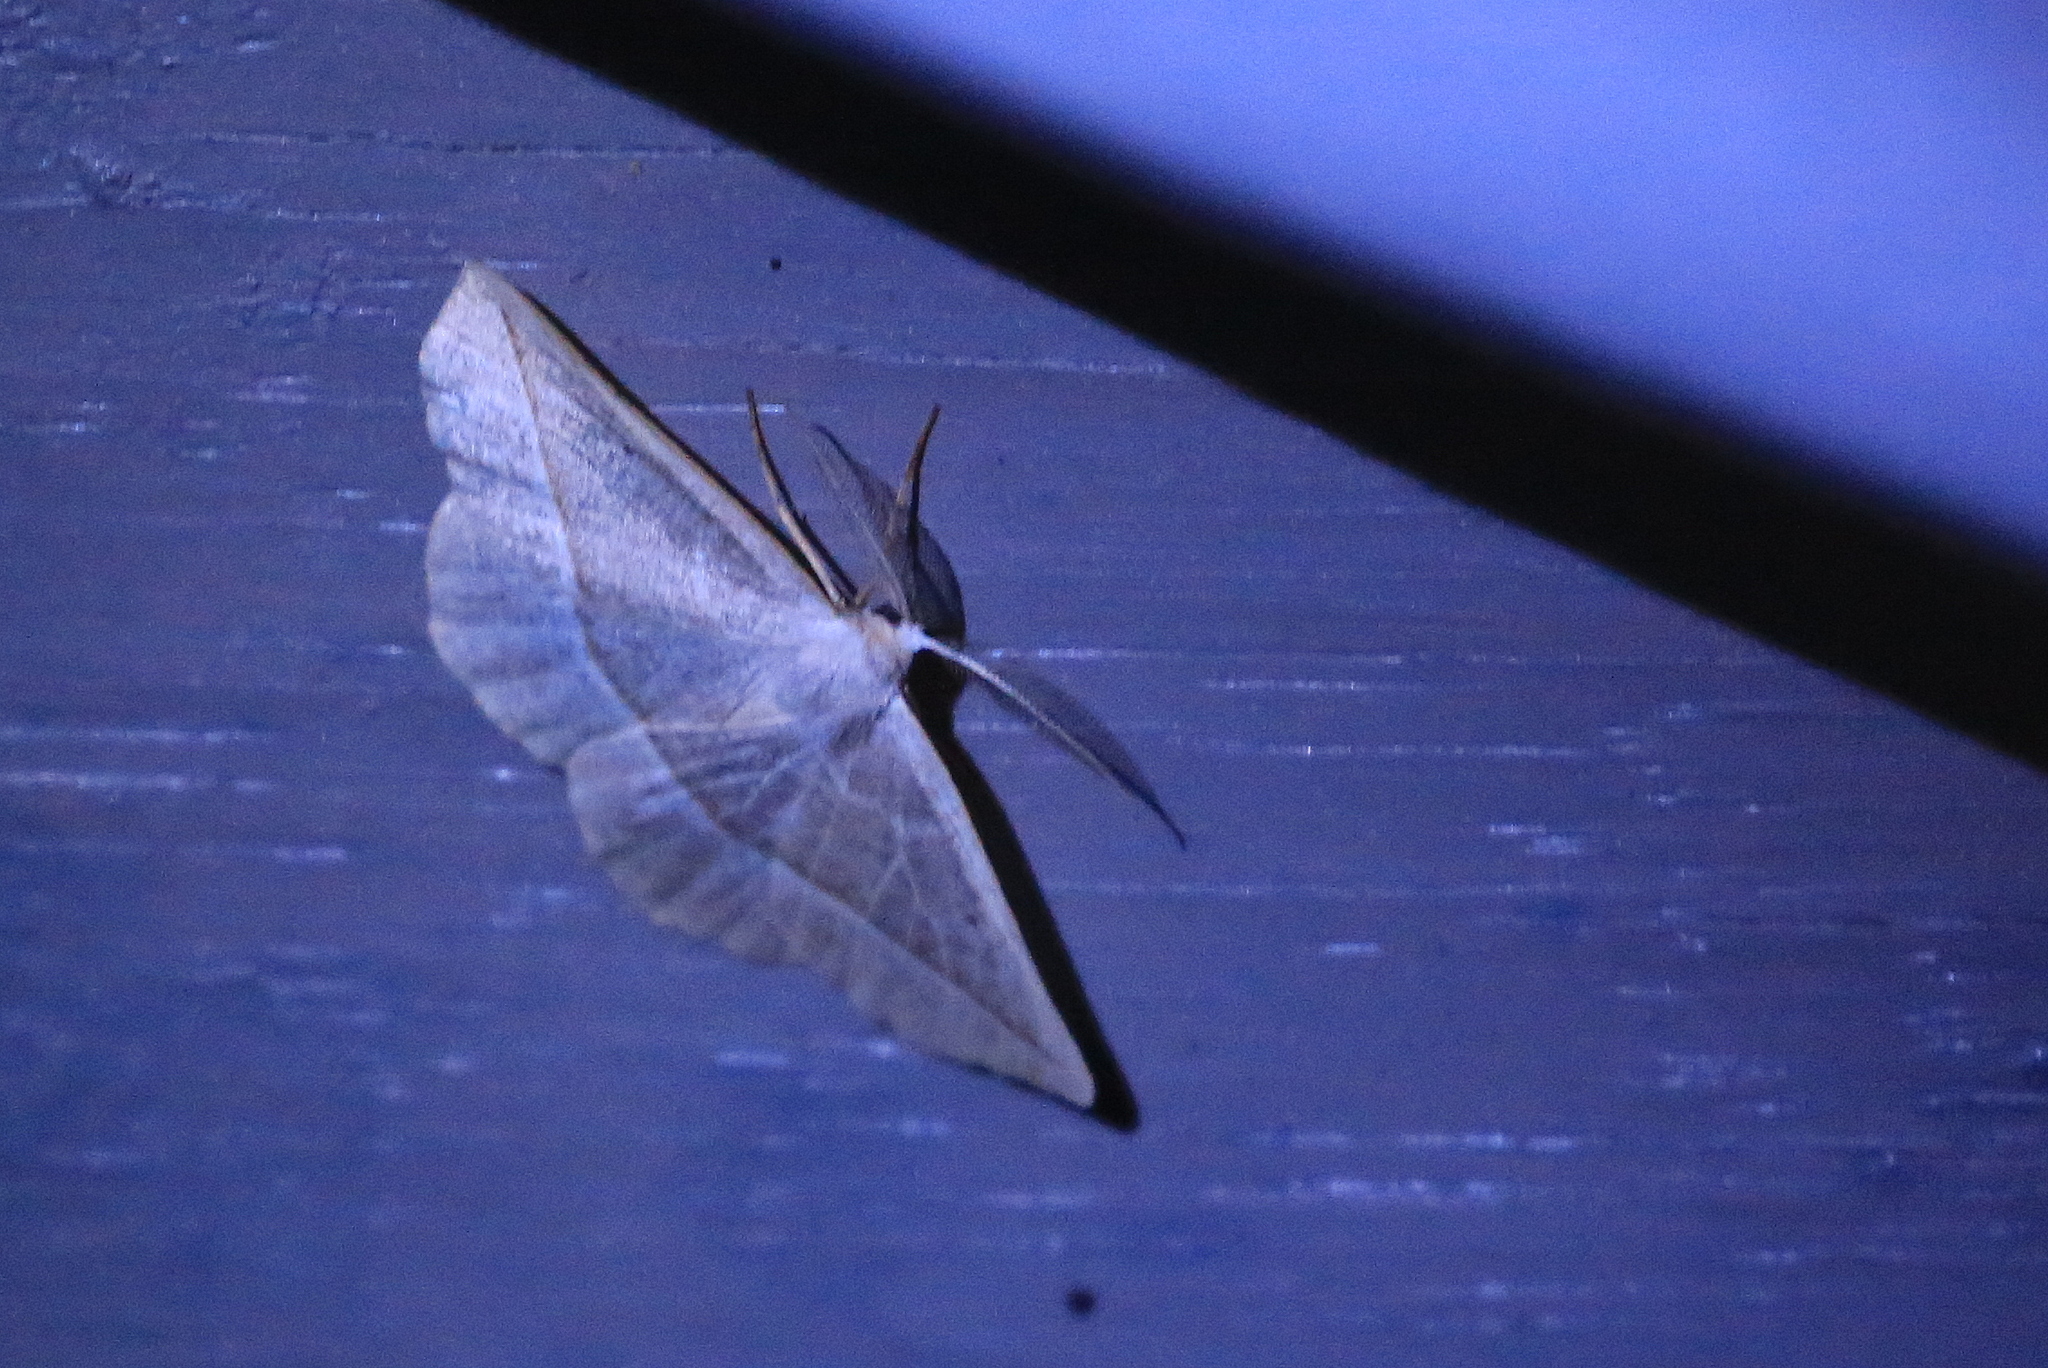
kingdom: Animalia
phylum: Arthropoda
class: Insecta
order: Lepidoptera
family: Geometridae
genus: Eusarca
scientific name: Eusarca confusaria
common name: Confused eusarca
